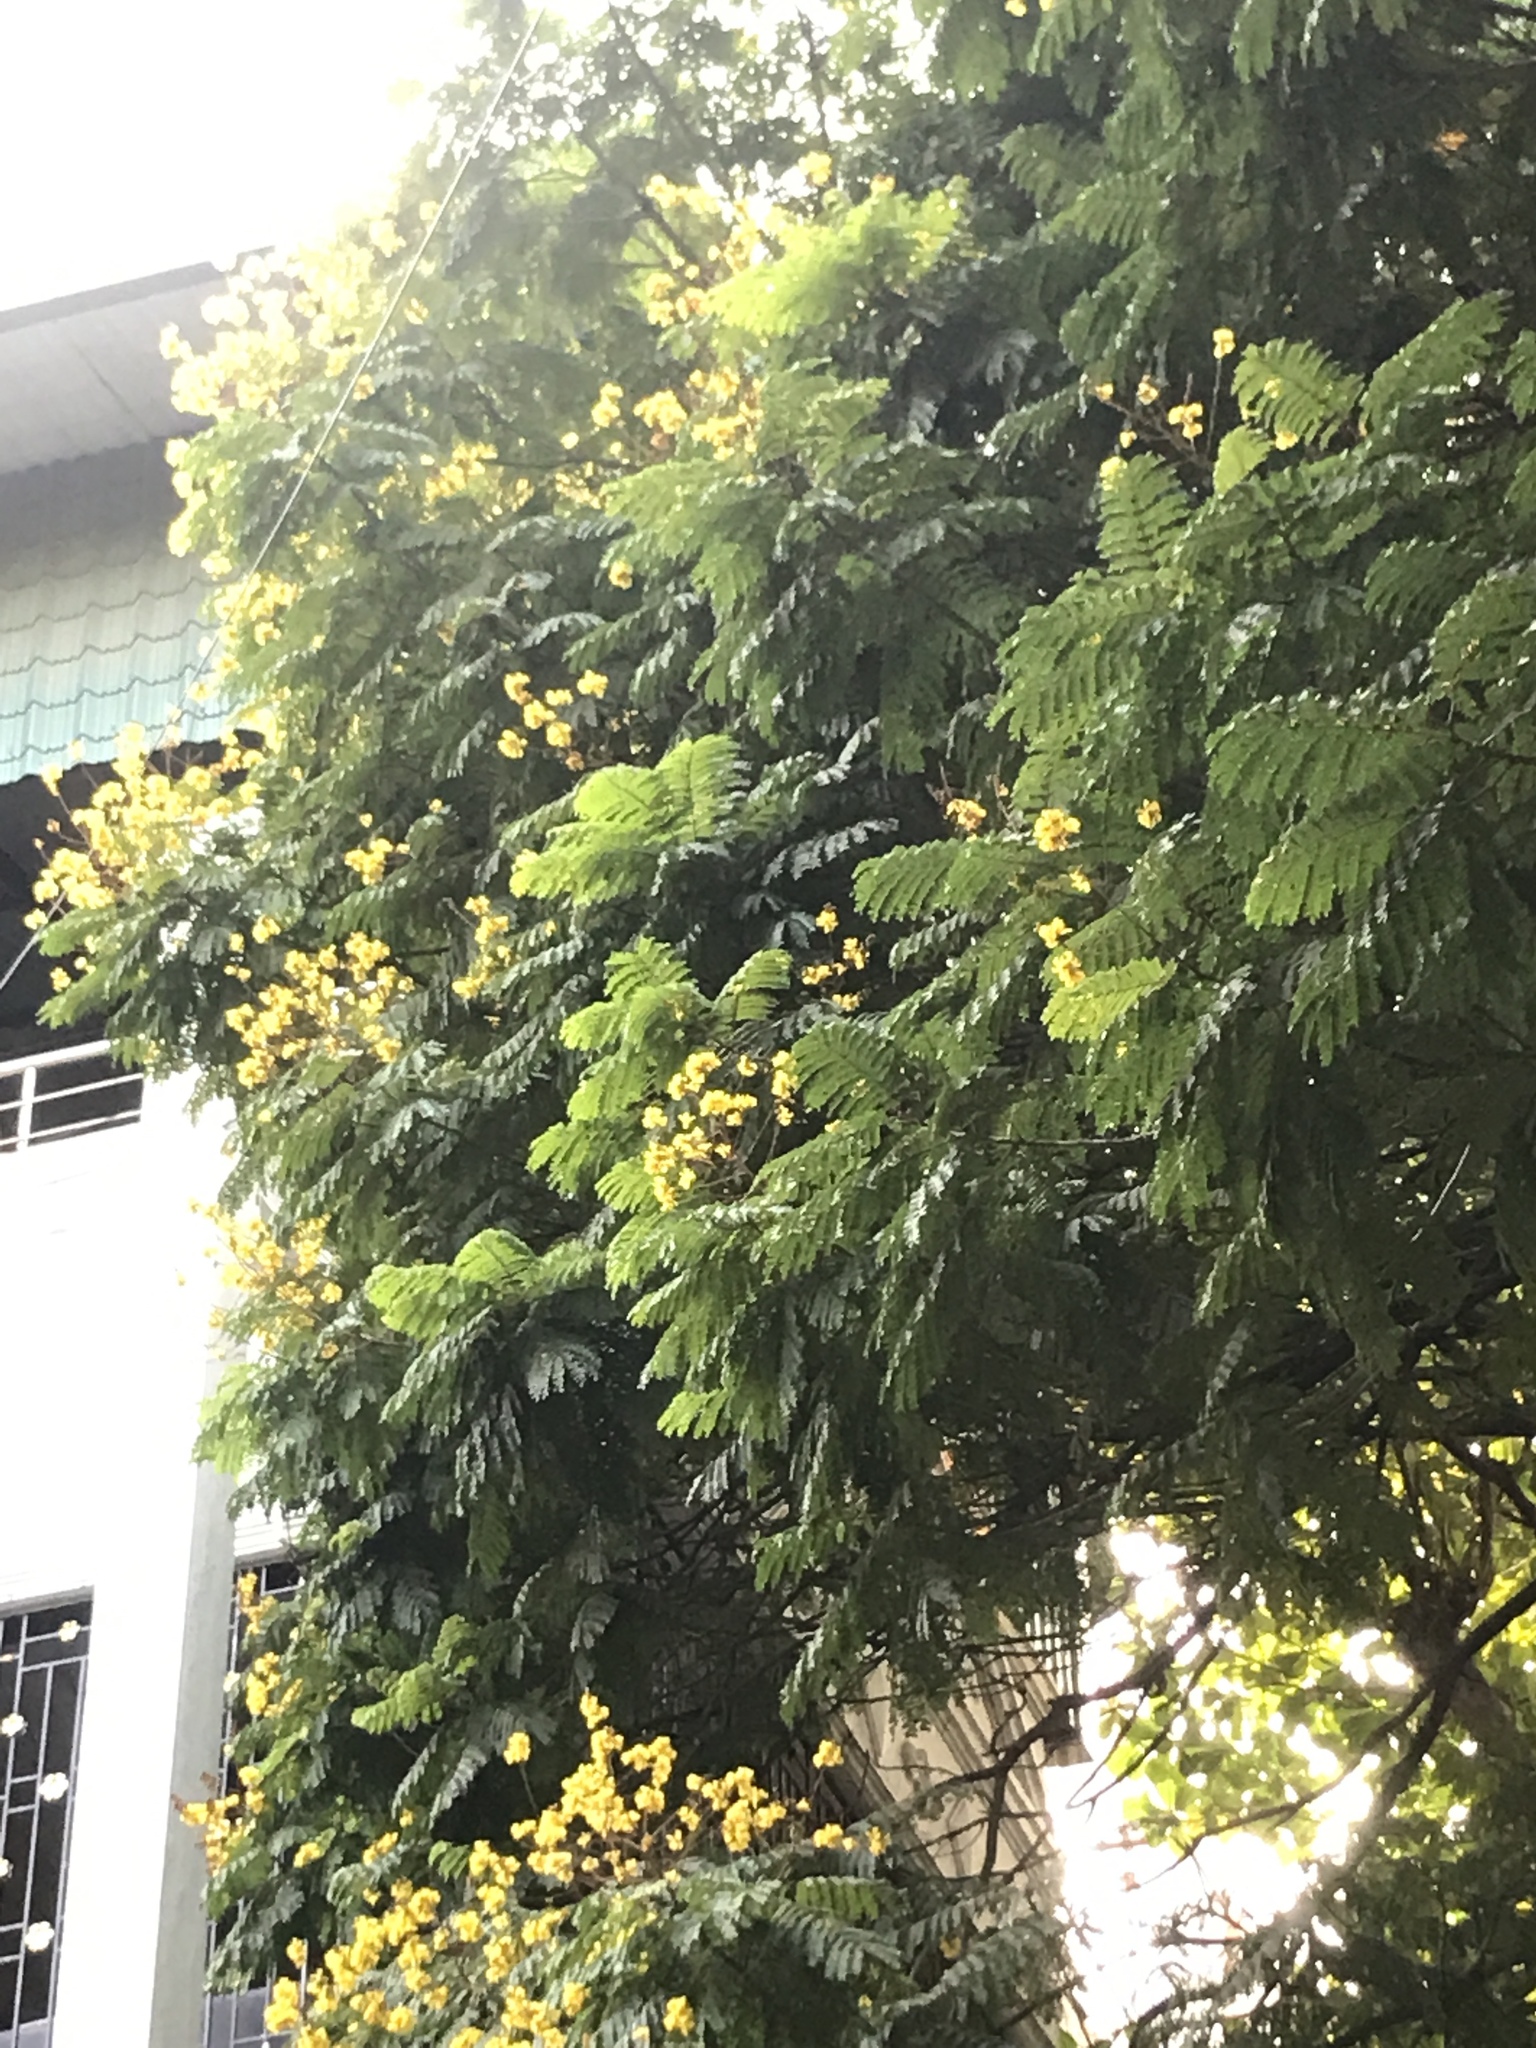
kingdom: Plantae
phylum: Tracheophyta
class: Magnoliopsida
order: Fabales
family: Fabaceae
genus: Peltophorum
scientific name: Peltophorum pterocarpum
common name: Yellow flame
